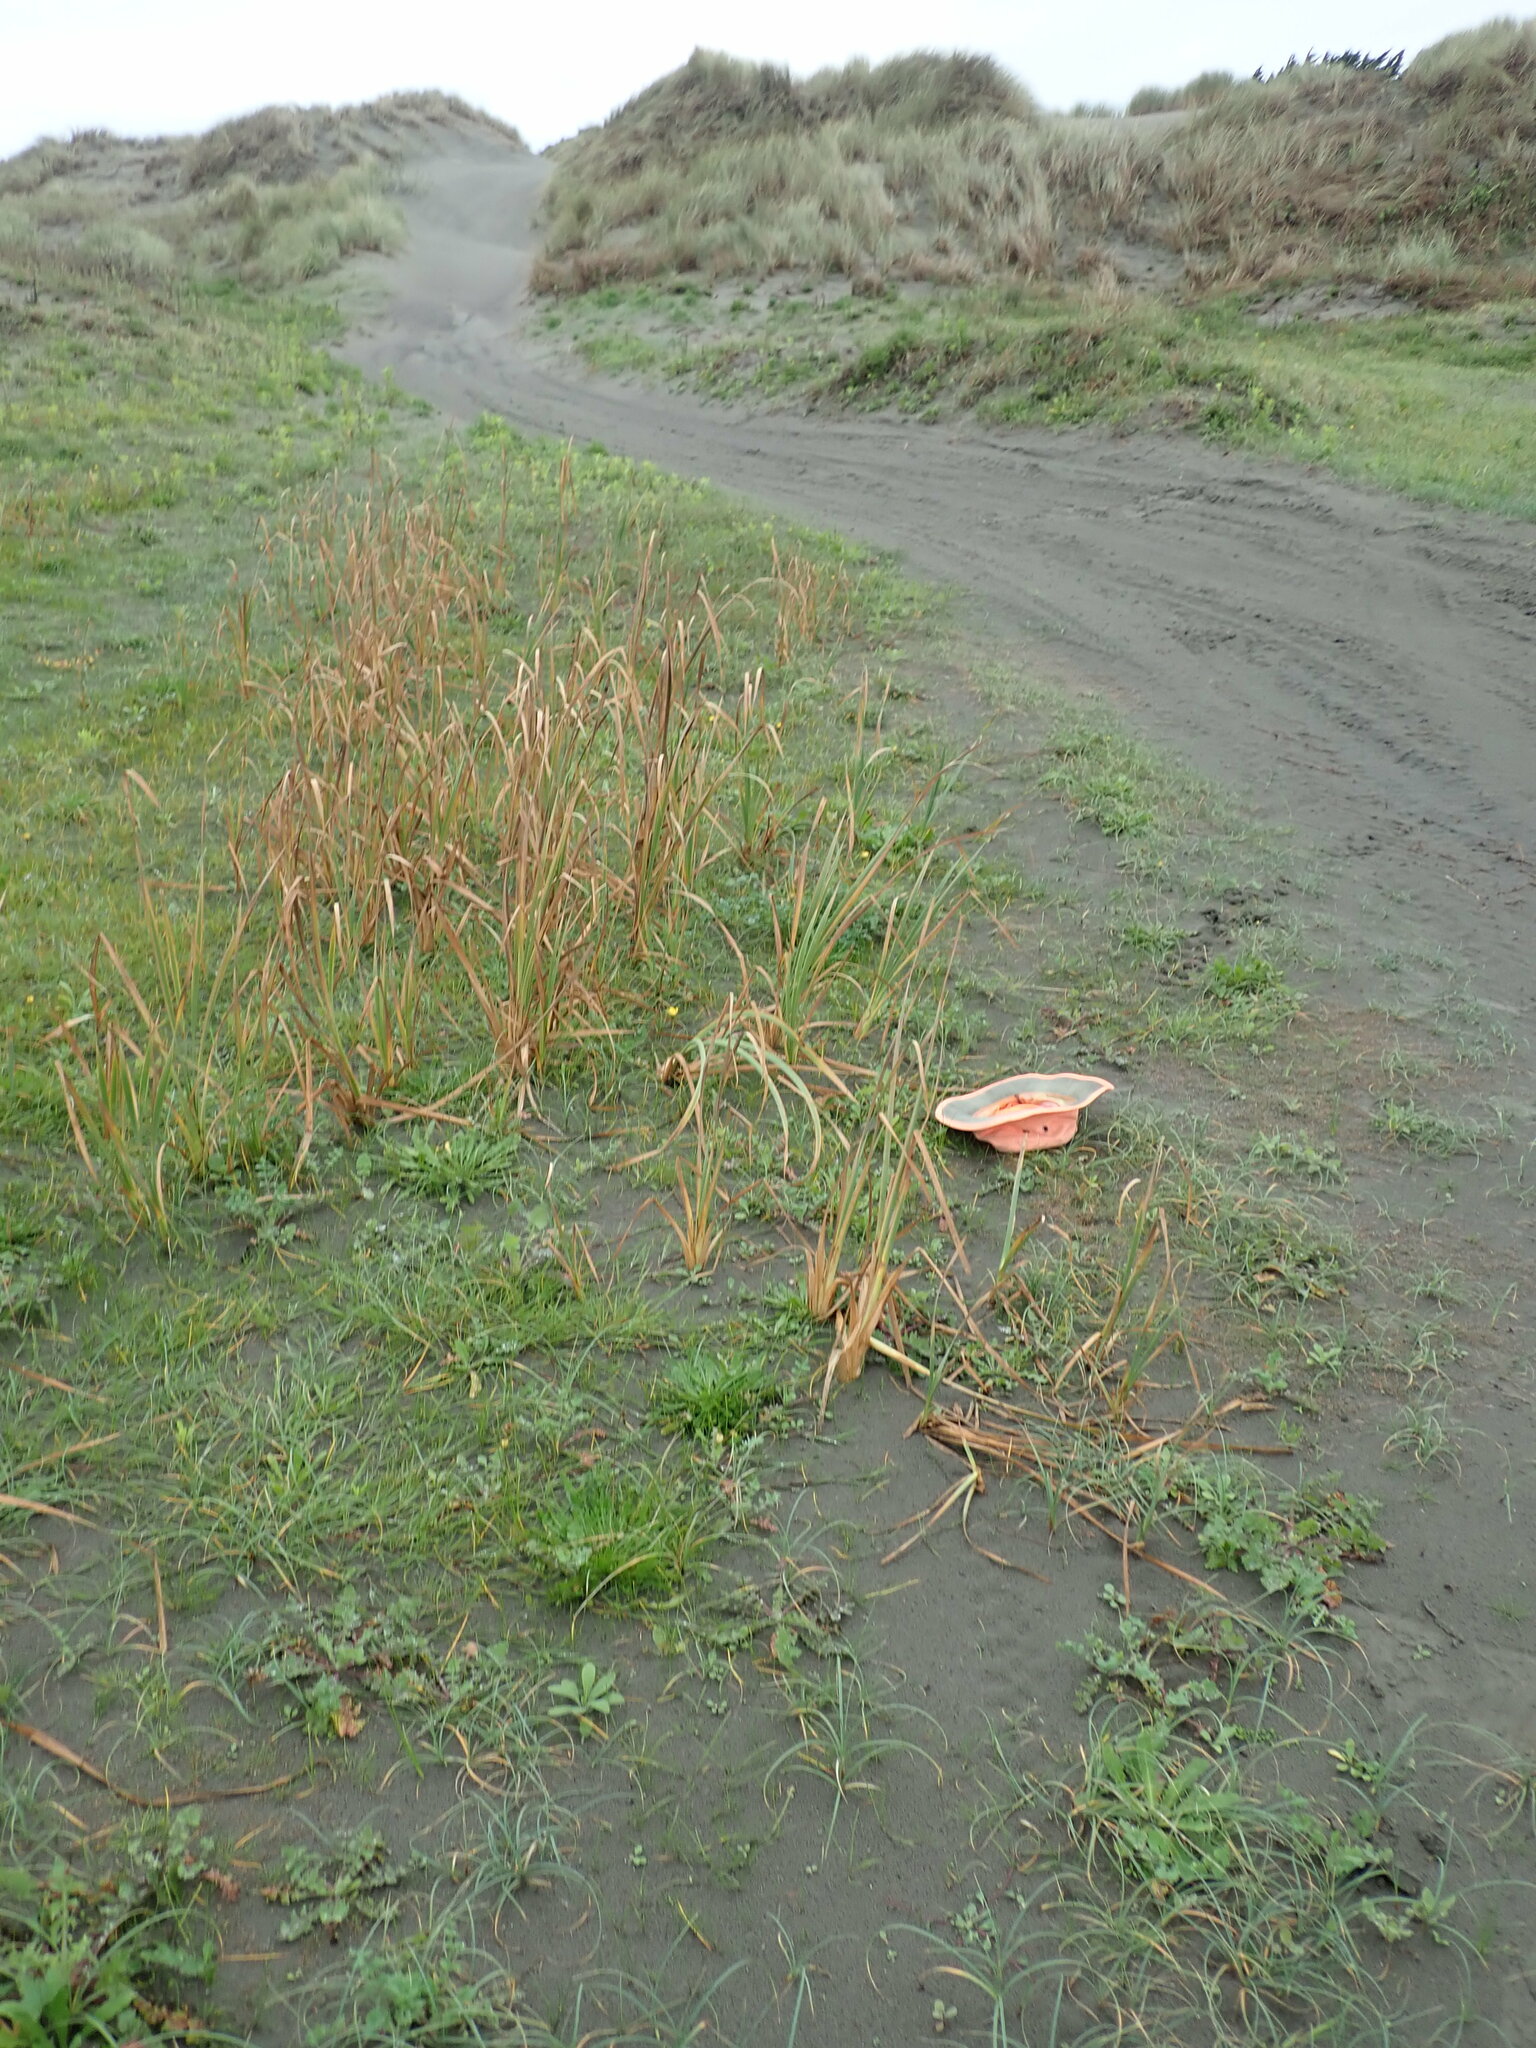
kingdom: Plantae
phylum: Tracheophyta
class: Magnoliopsida
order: Asterales
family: Campanulaceae
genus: Lobelia
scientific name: Lobelia anceps
